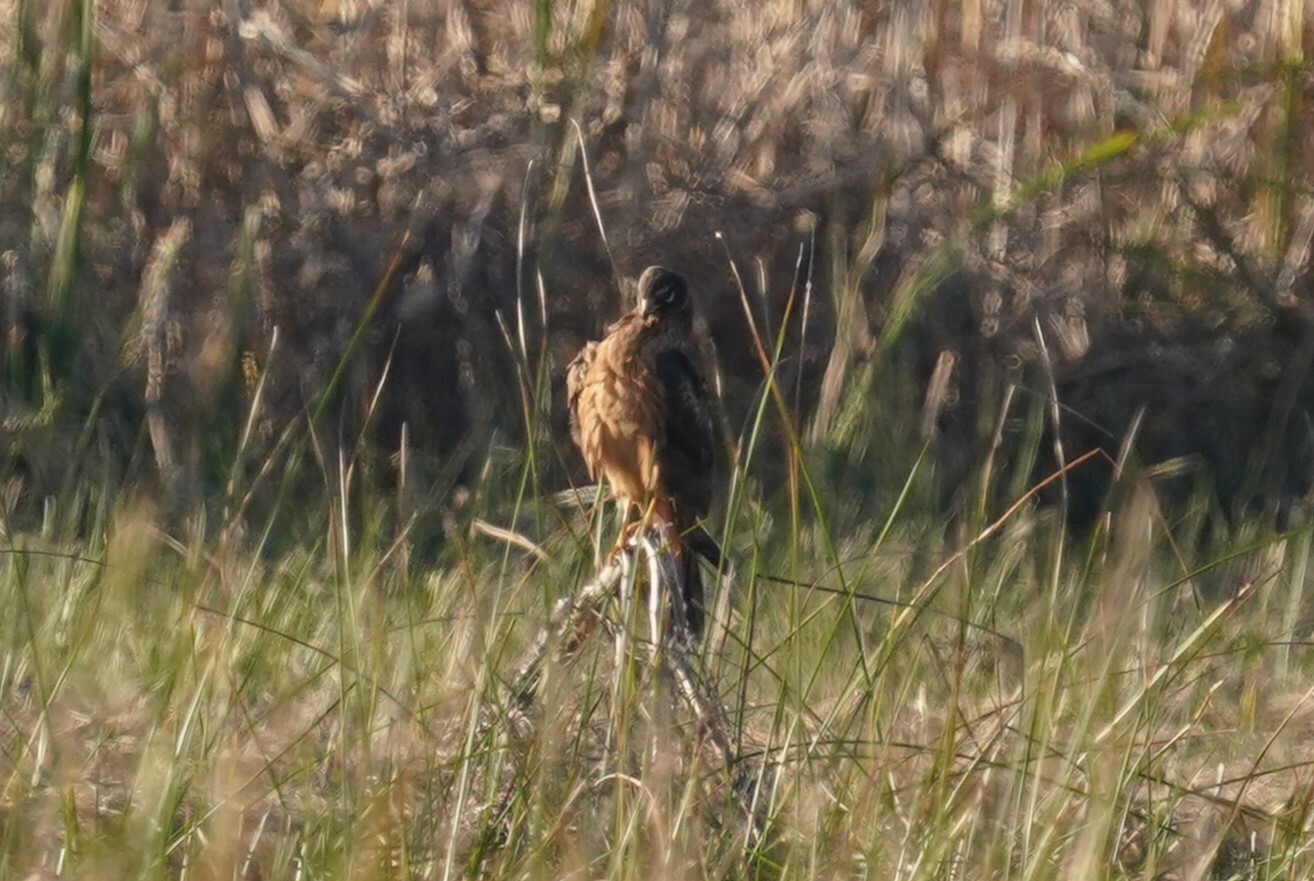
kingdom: Animalia
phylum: Chordata
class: Aves
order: Accipitriformes
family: Accipitridae
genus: Circus
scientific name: Circus cyaneus
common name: Hen harrier
